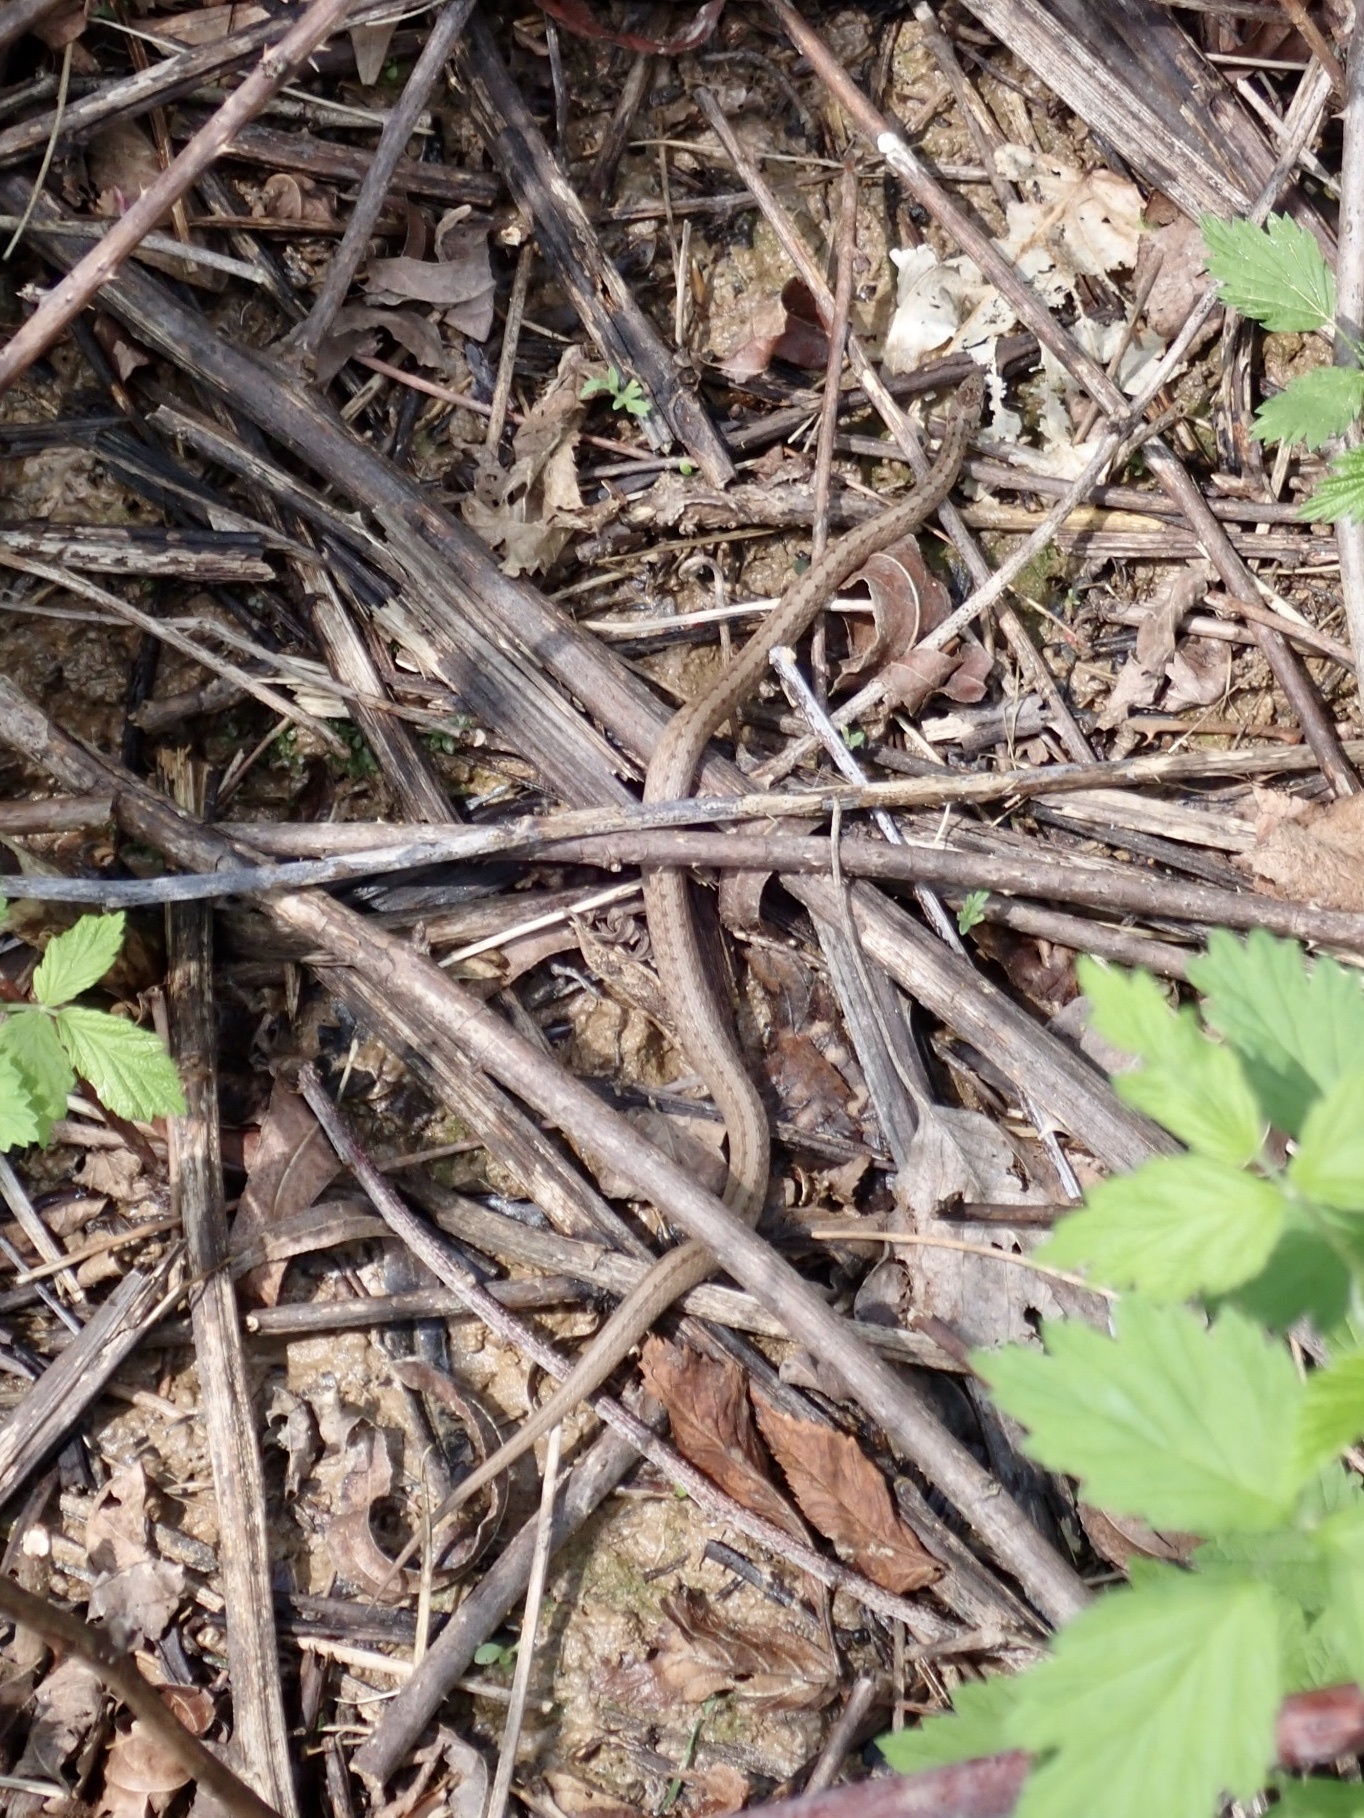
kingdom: Animalia
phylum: Chordata
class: Squamata
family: Colubridae
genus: Storeria
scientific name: Storeria dekayi
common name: (dekay’s) brown snake
